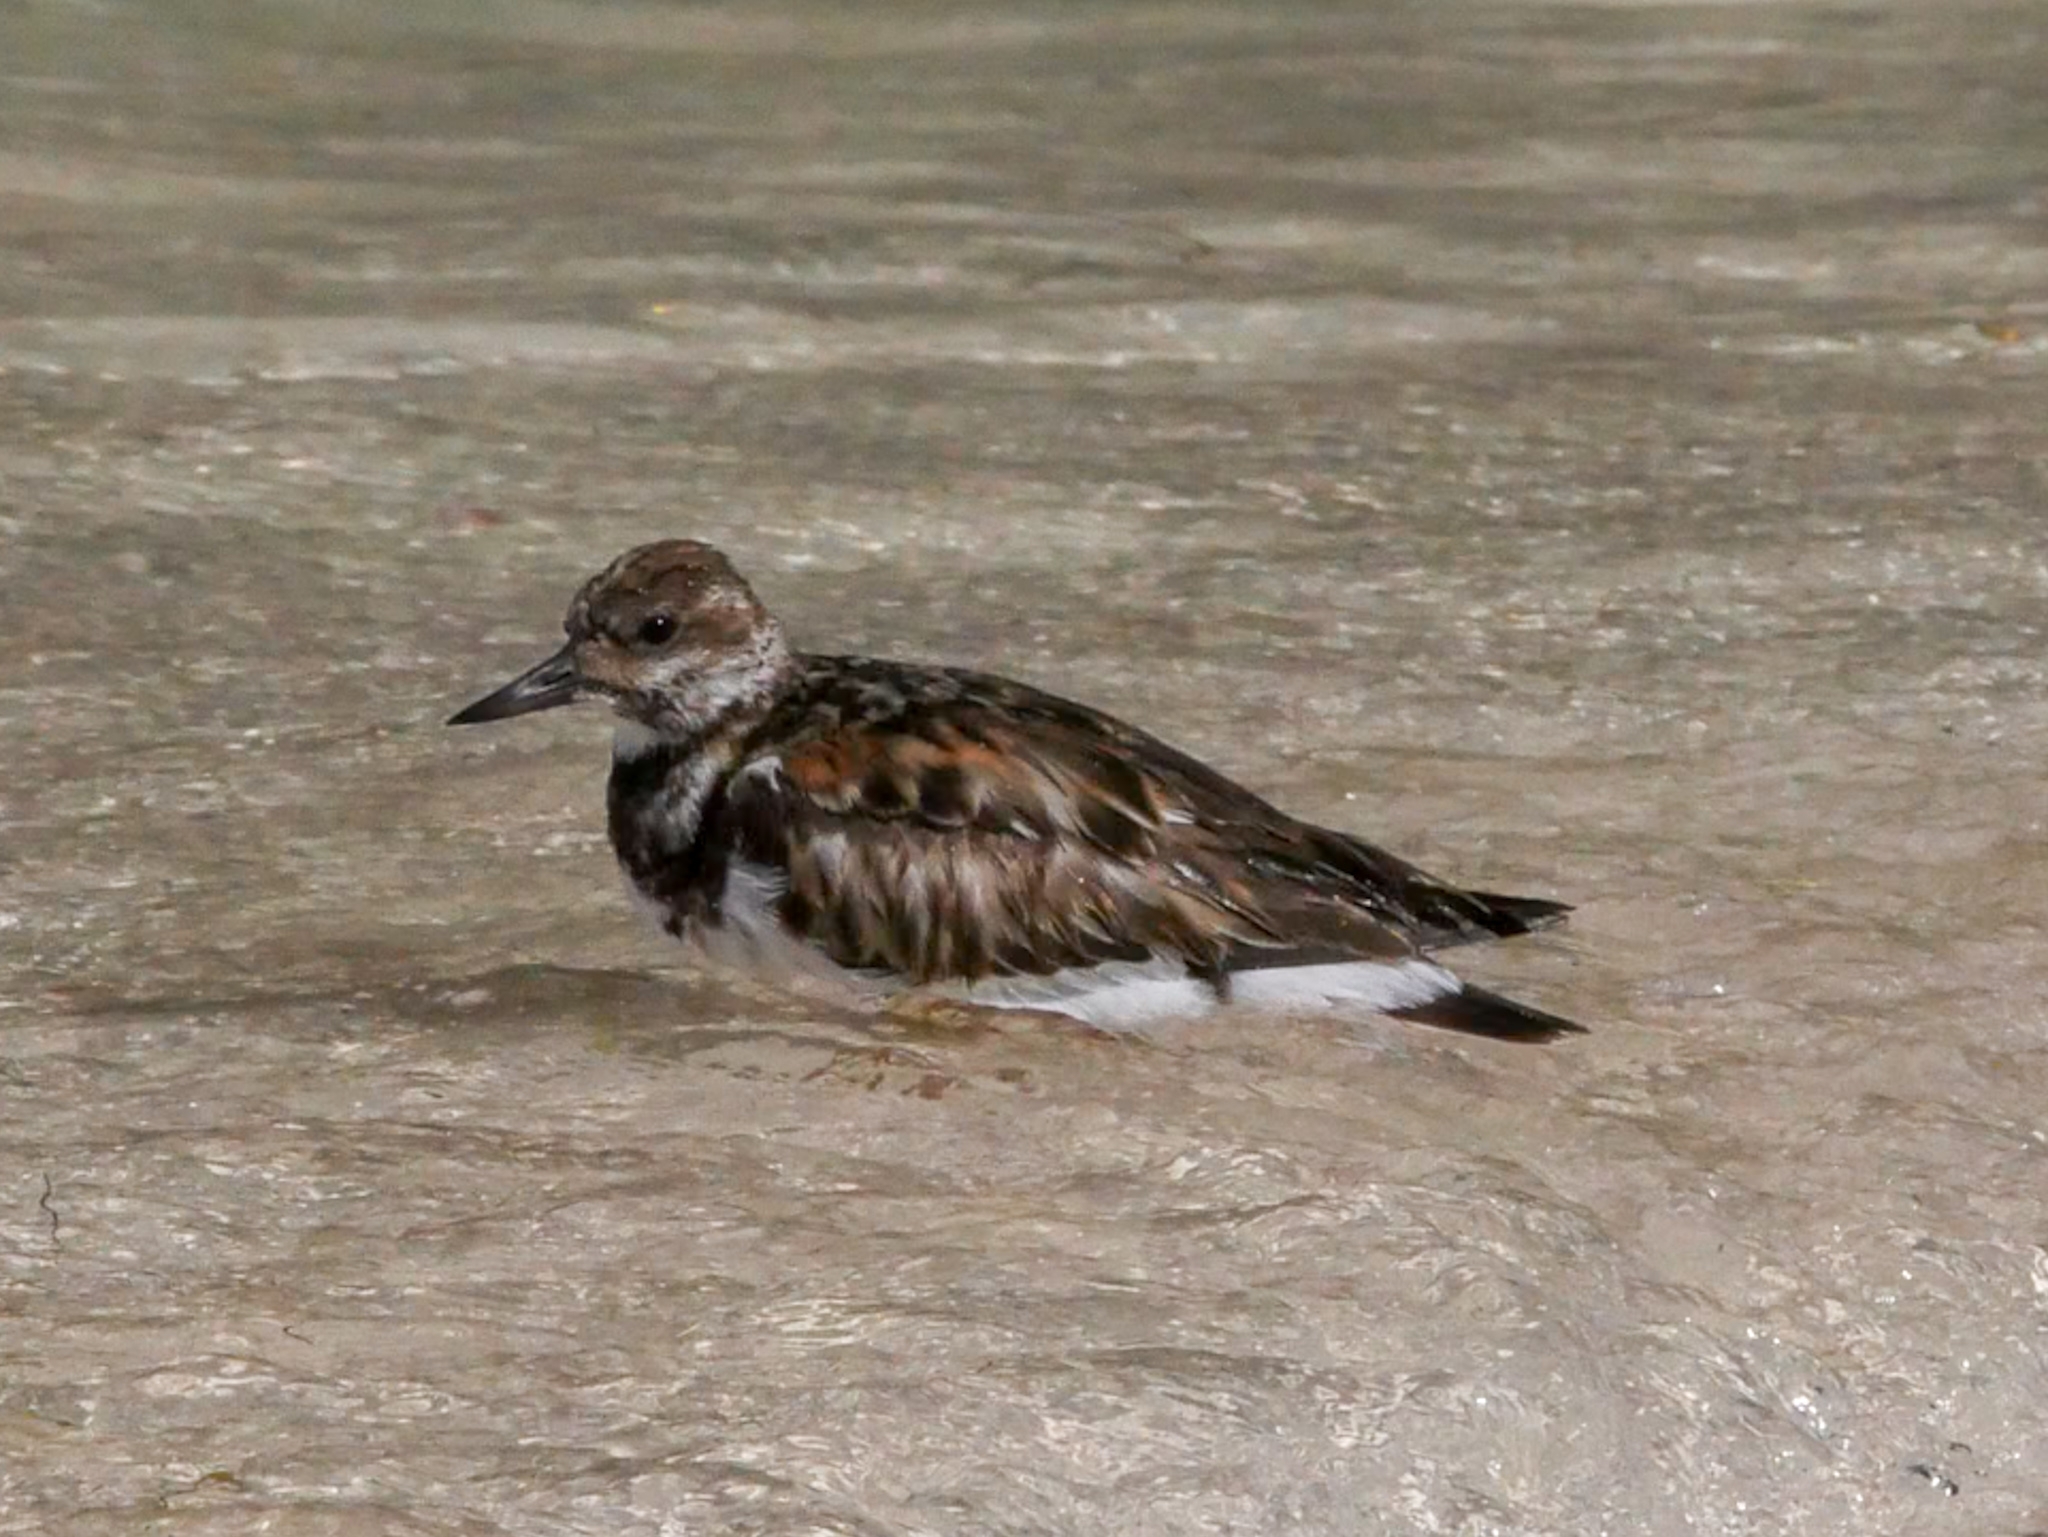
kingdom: Animalia
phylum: Chordata
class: Aves
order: Charadriiformes
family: Scolopacidae
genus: Arenaria
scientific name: Arenaria interpres
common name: Ruddy turnstone
